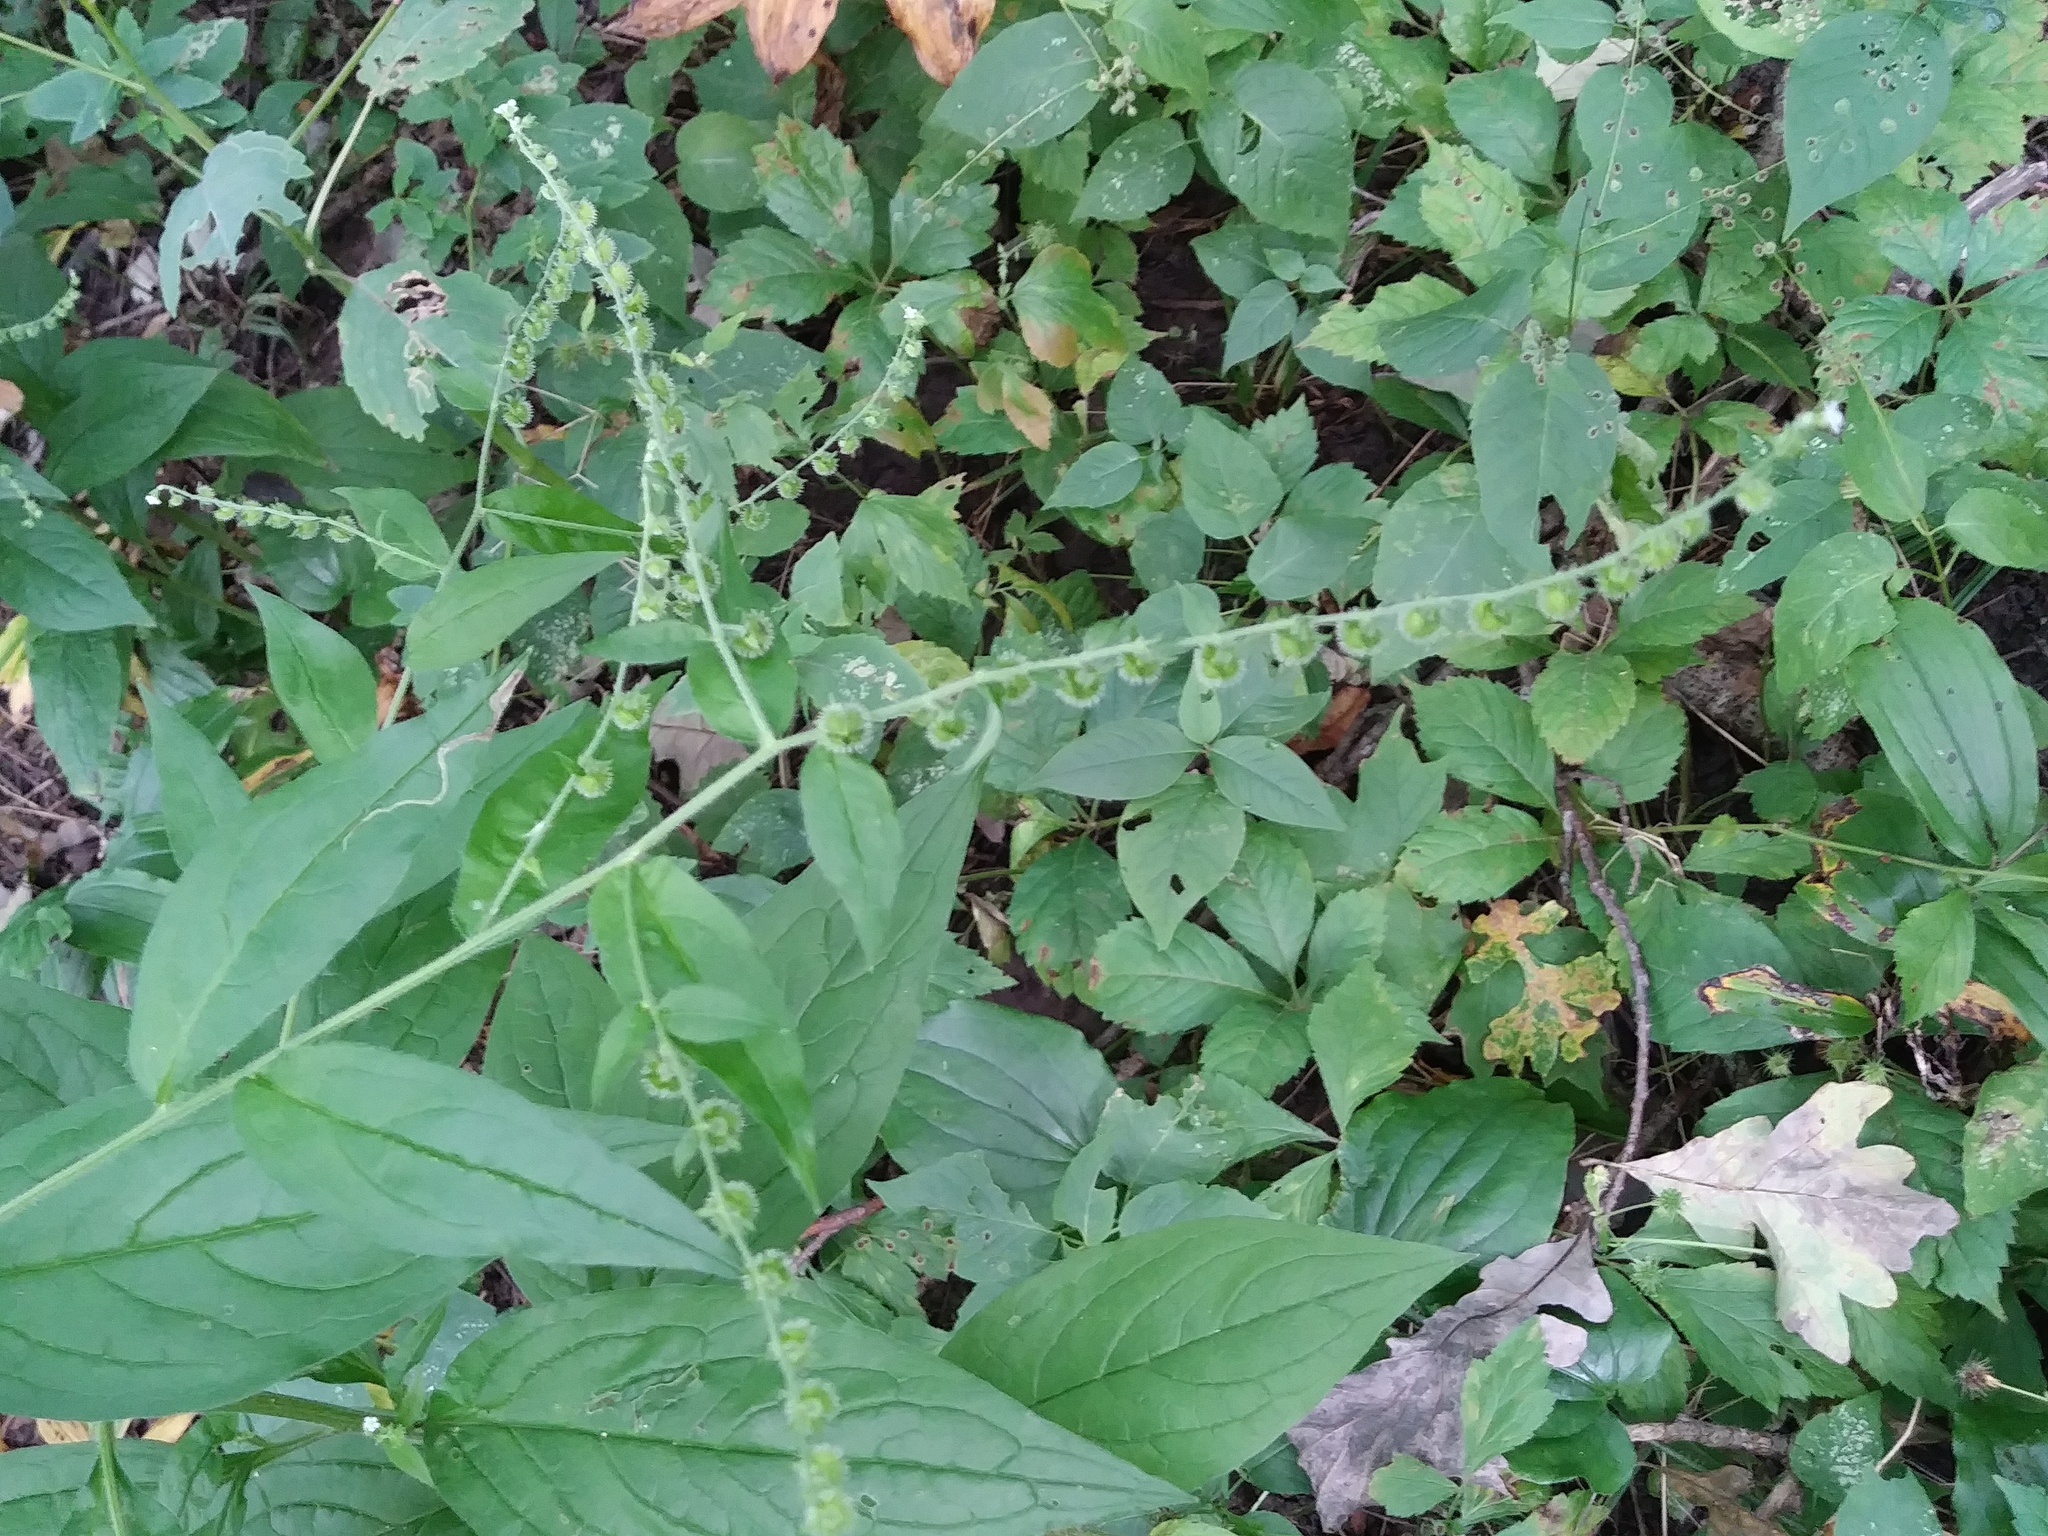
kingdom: Plantae
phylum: Tracheophyta
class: Magnoliopsida
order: Boraginales
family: Boraginaceae
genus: Hackelia
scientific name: Hackelia virginiana
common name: Beggar's-lice
